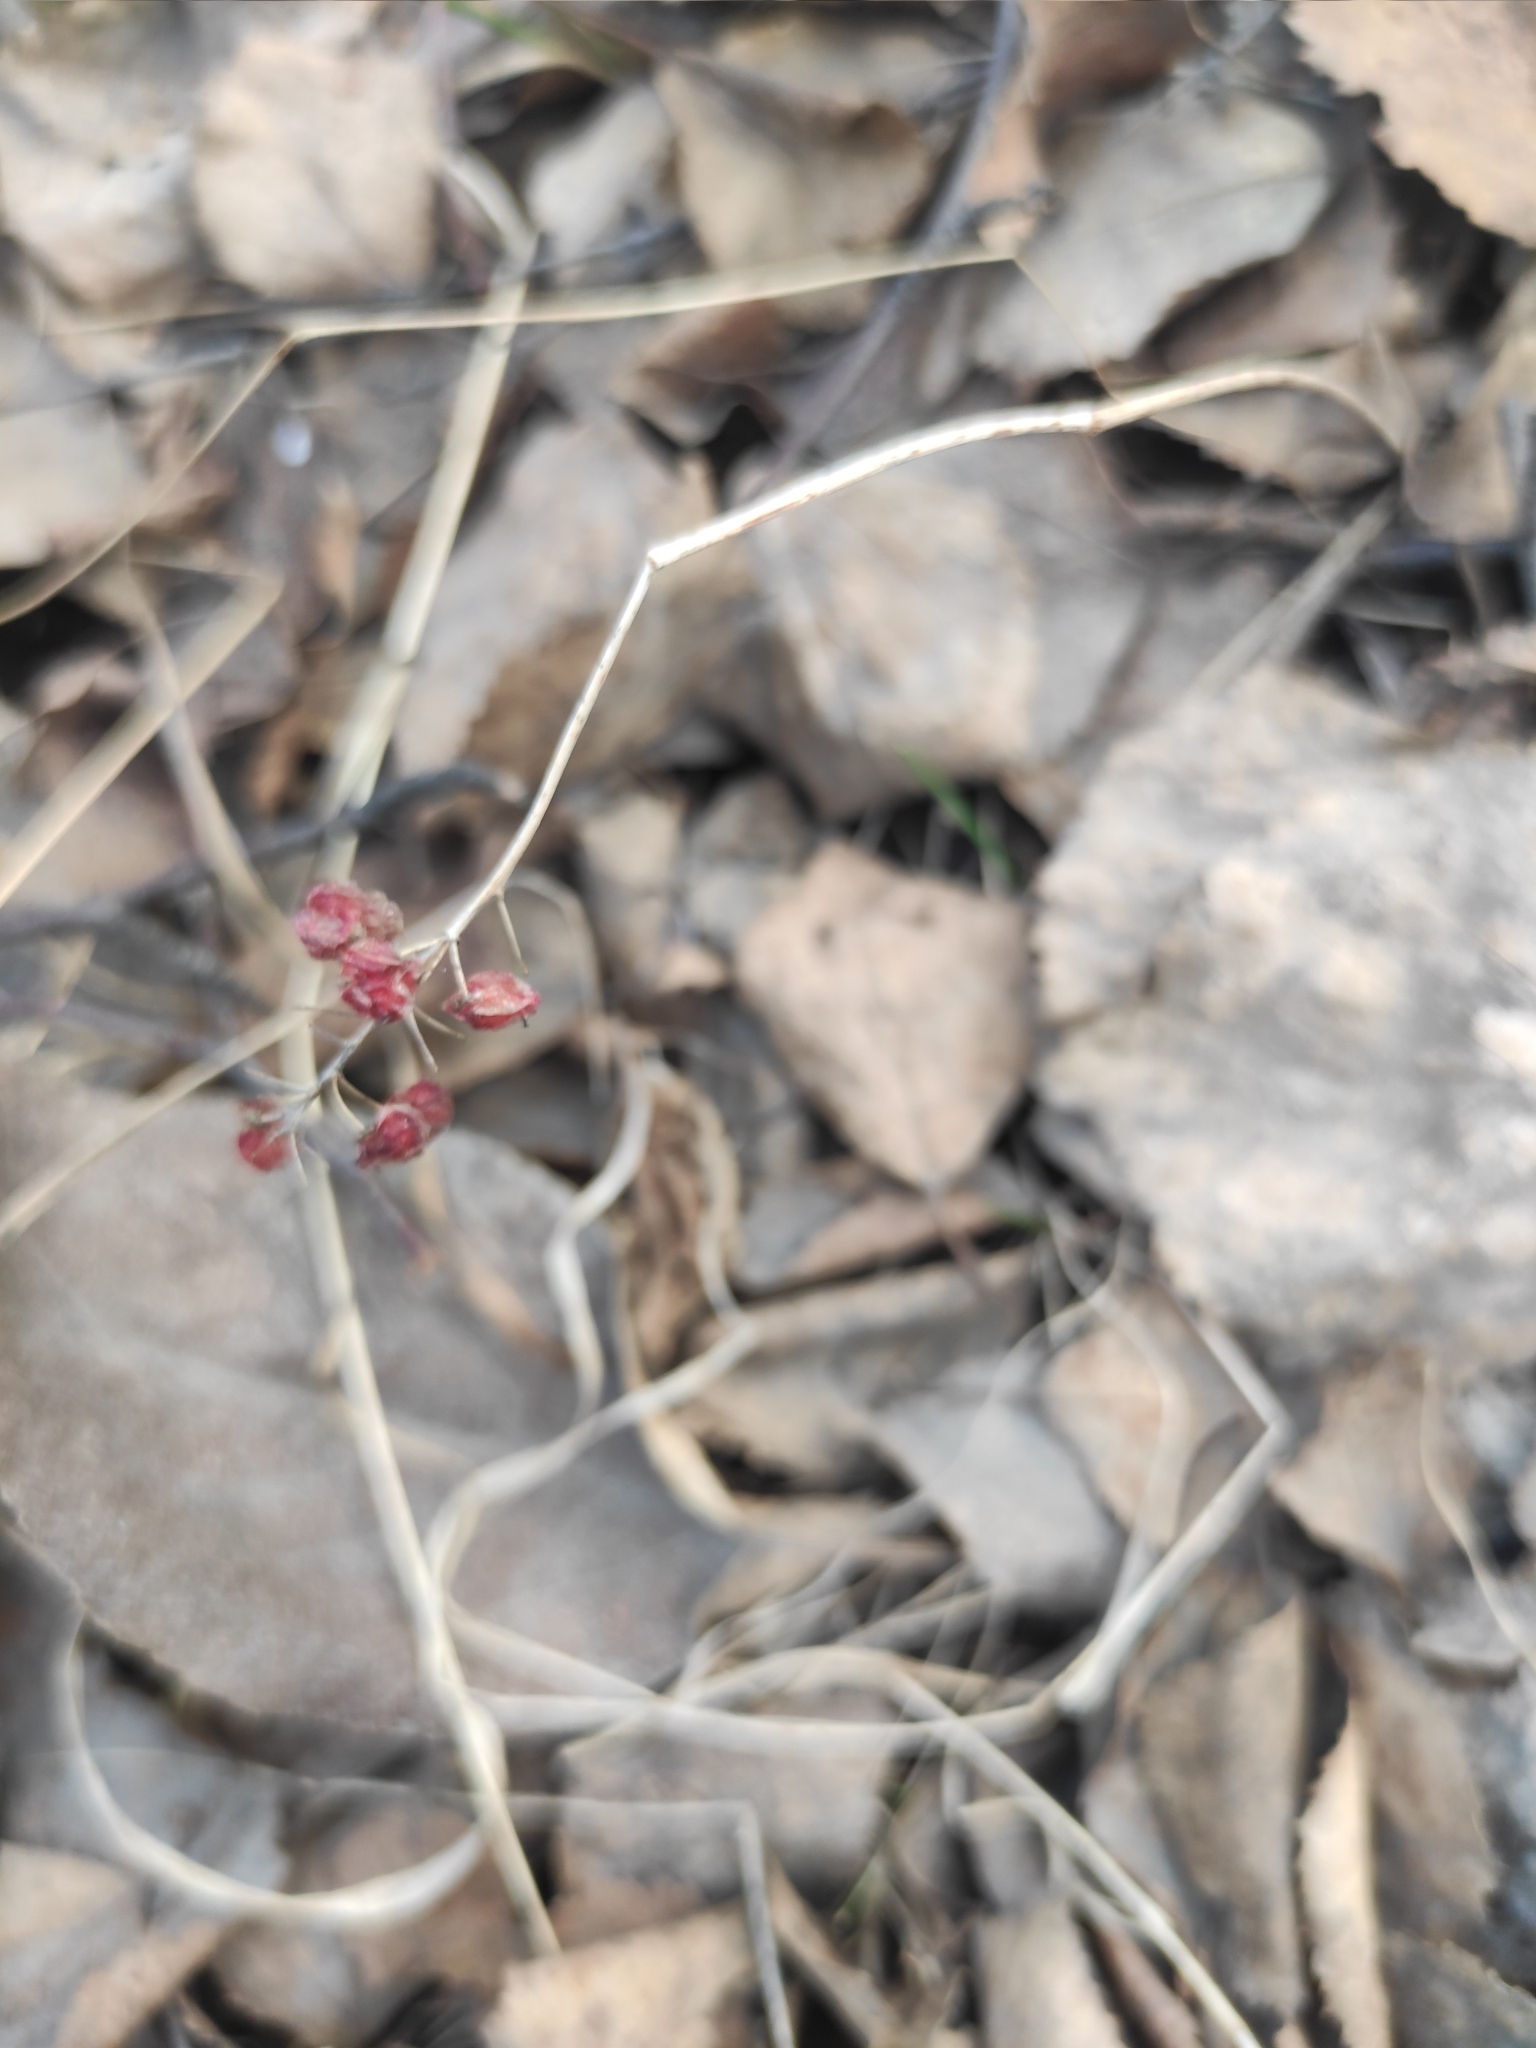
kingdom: Plantae
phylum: Tracheophyta
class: Liliopsida
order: Asparagales
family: Asparagaceae
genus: Maianthemum
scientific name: Maianthemum bifolium
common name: May lily
